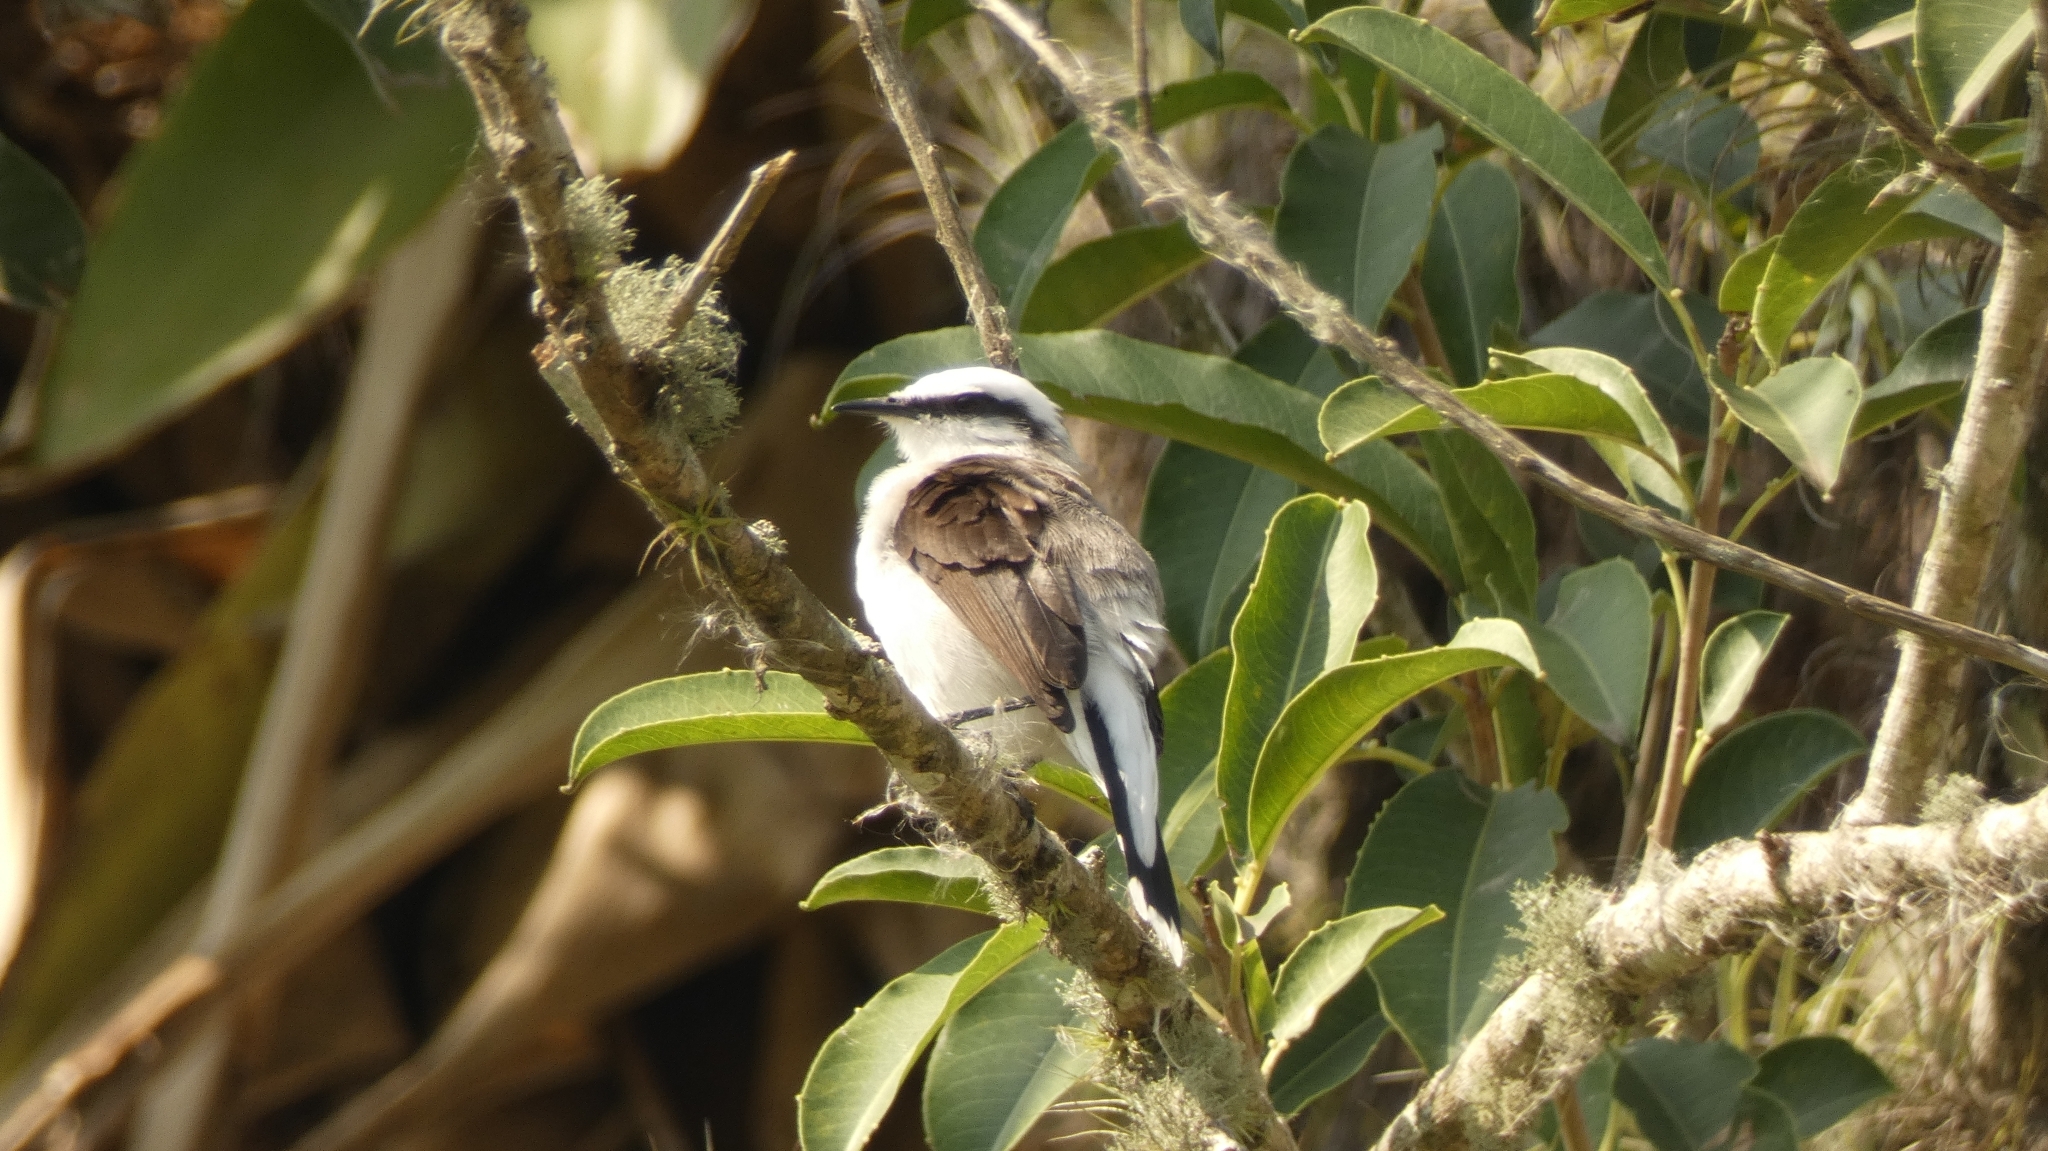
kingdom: Animalia
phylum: Chordata
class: Aves
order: Passeriformes
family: Tyrannidae
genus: Fluvicola
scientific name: Fluvicola nengeta
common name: Masked water tyrant
